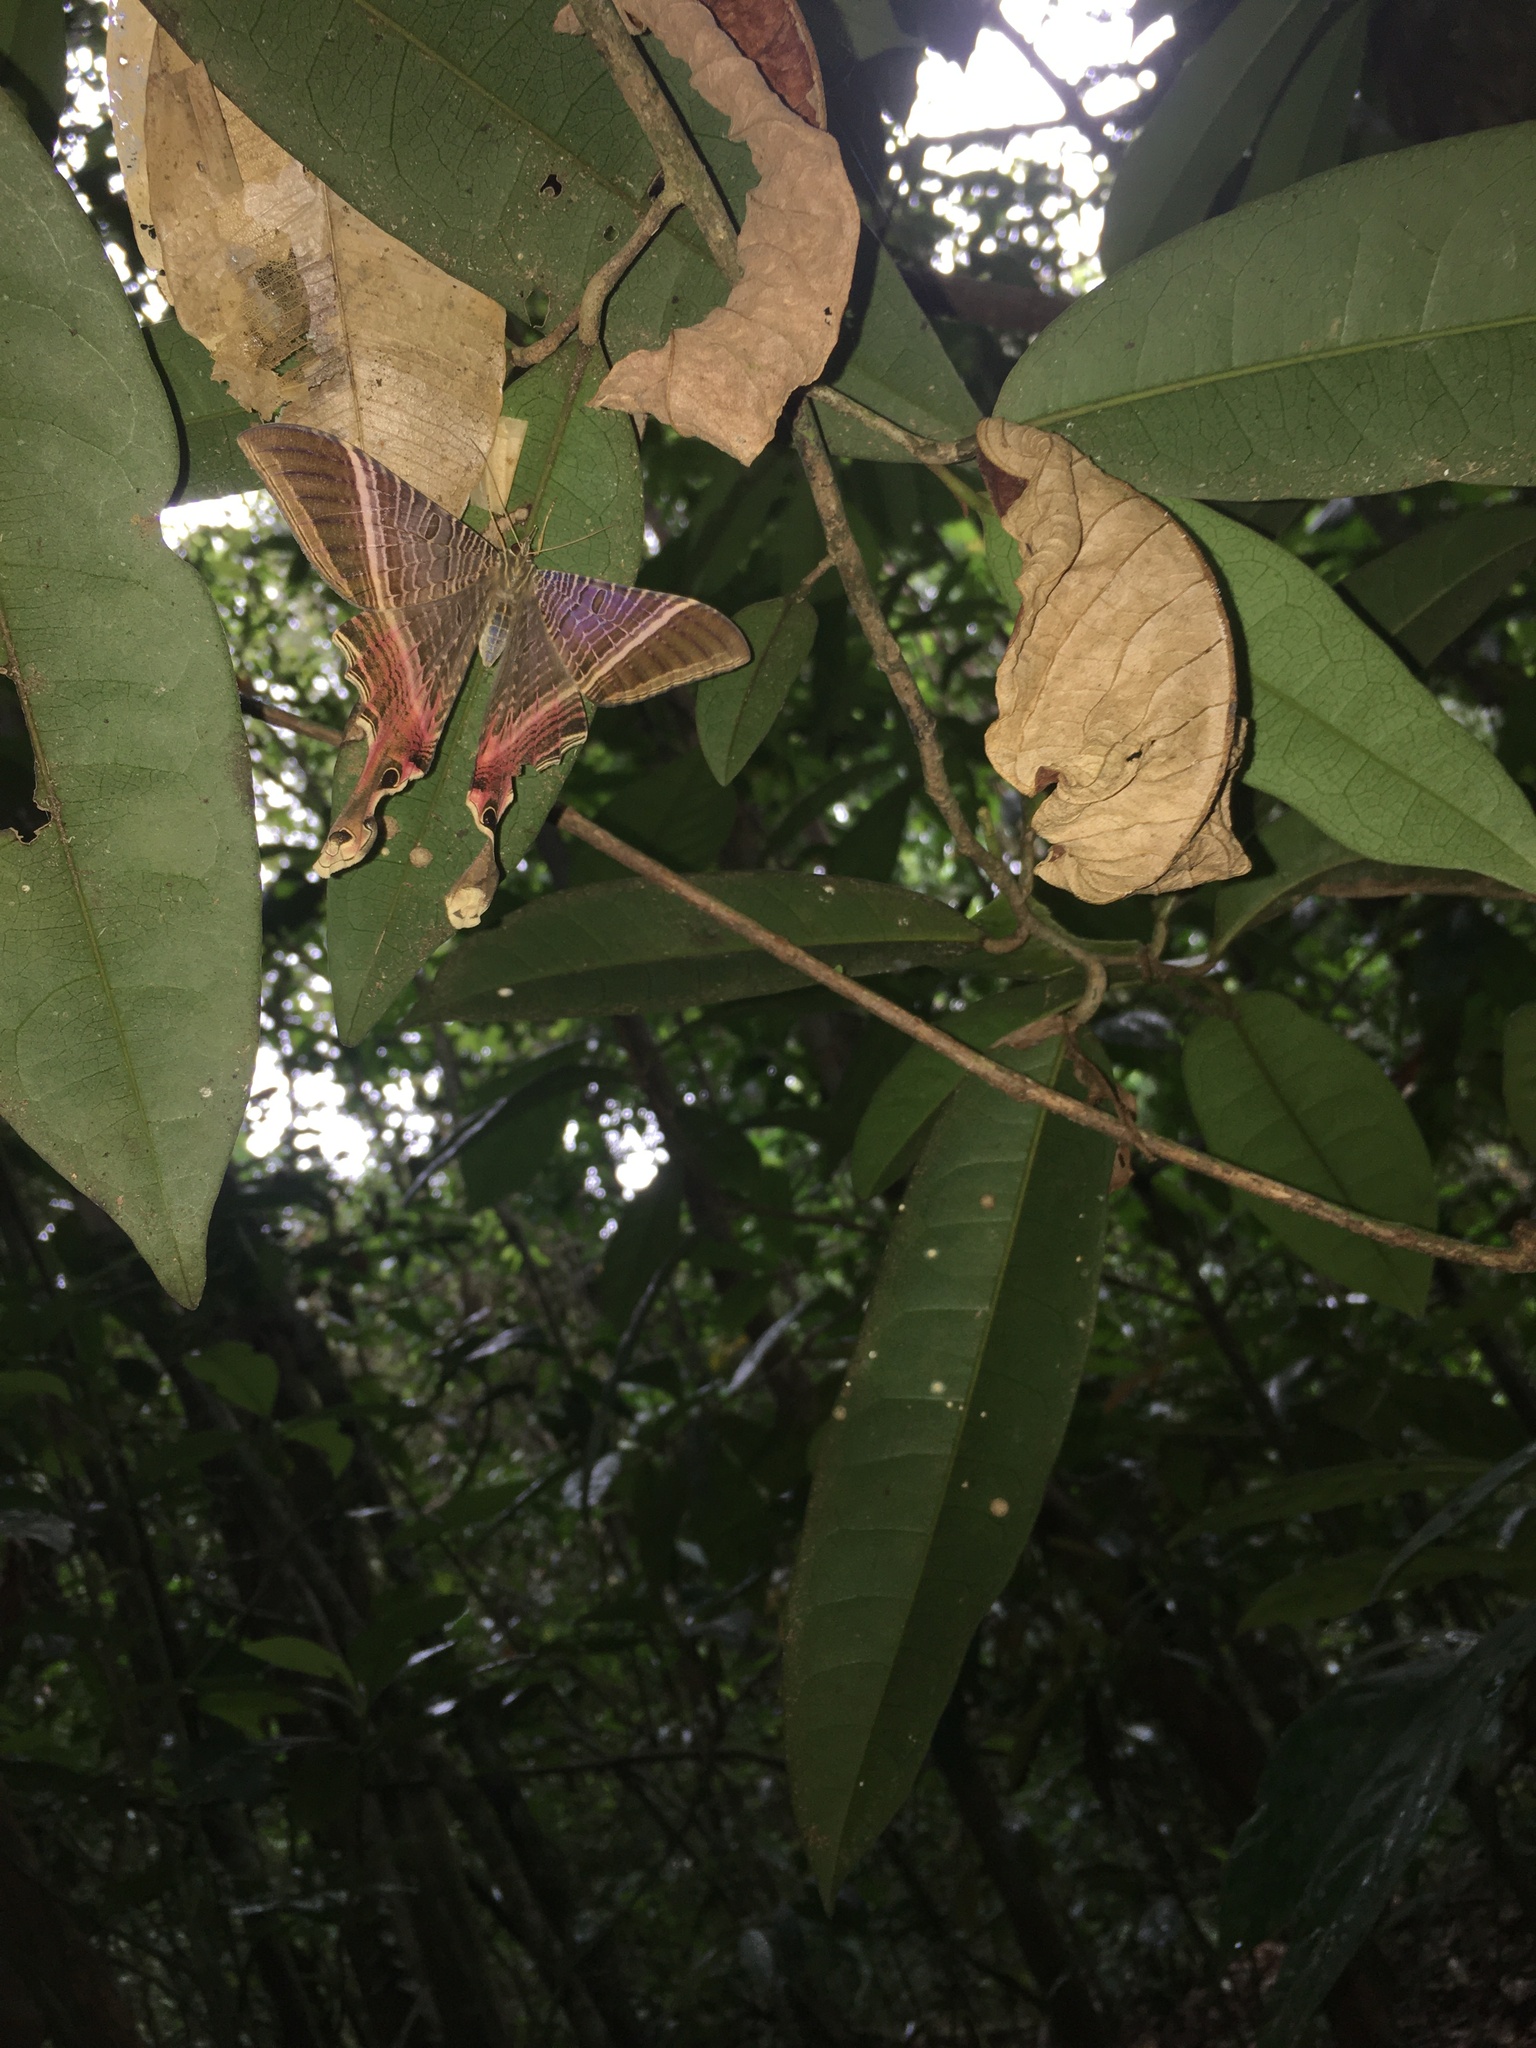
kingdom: Animalia
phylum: Arthropoda
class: Insecta
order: Lepidoptera
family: Sematuridae
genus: Nothus
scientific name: Nothus lunus
